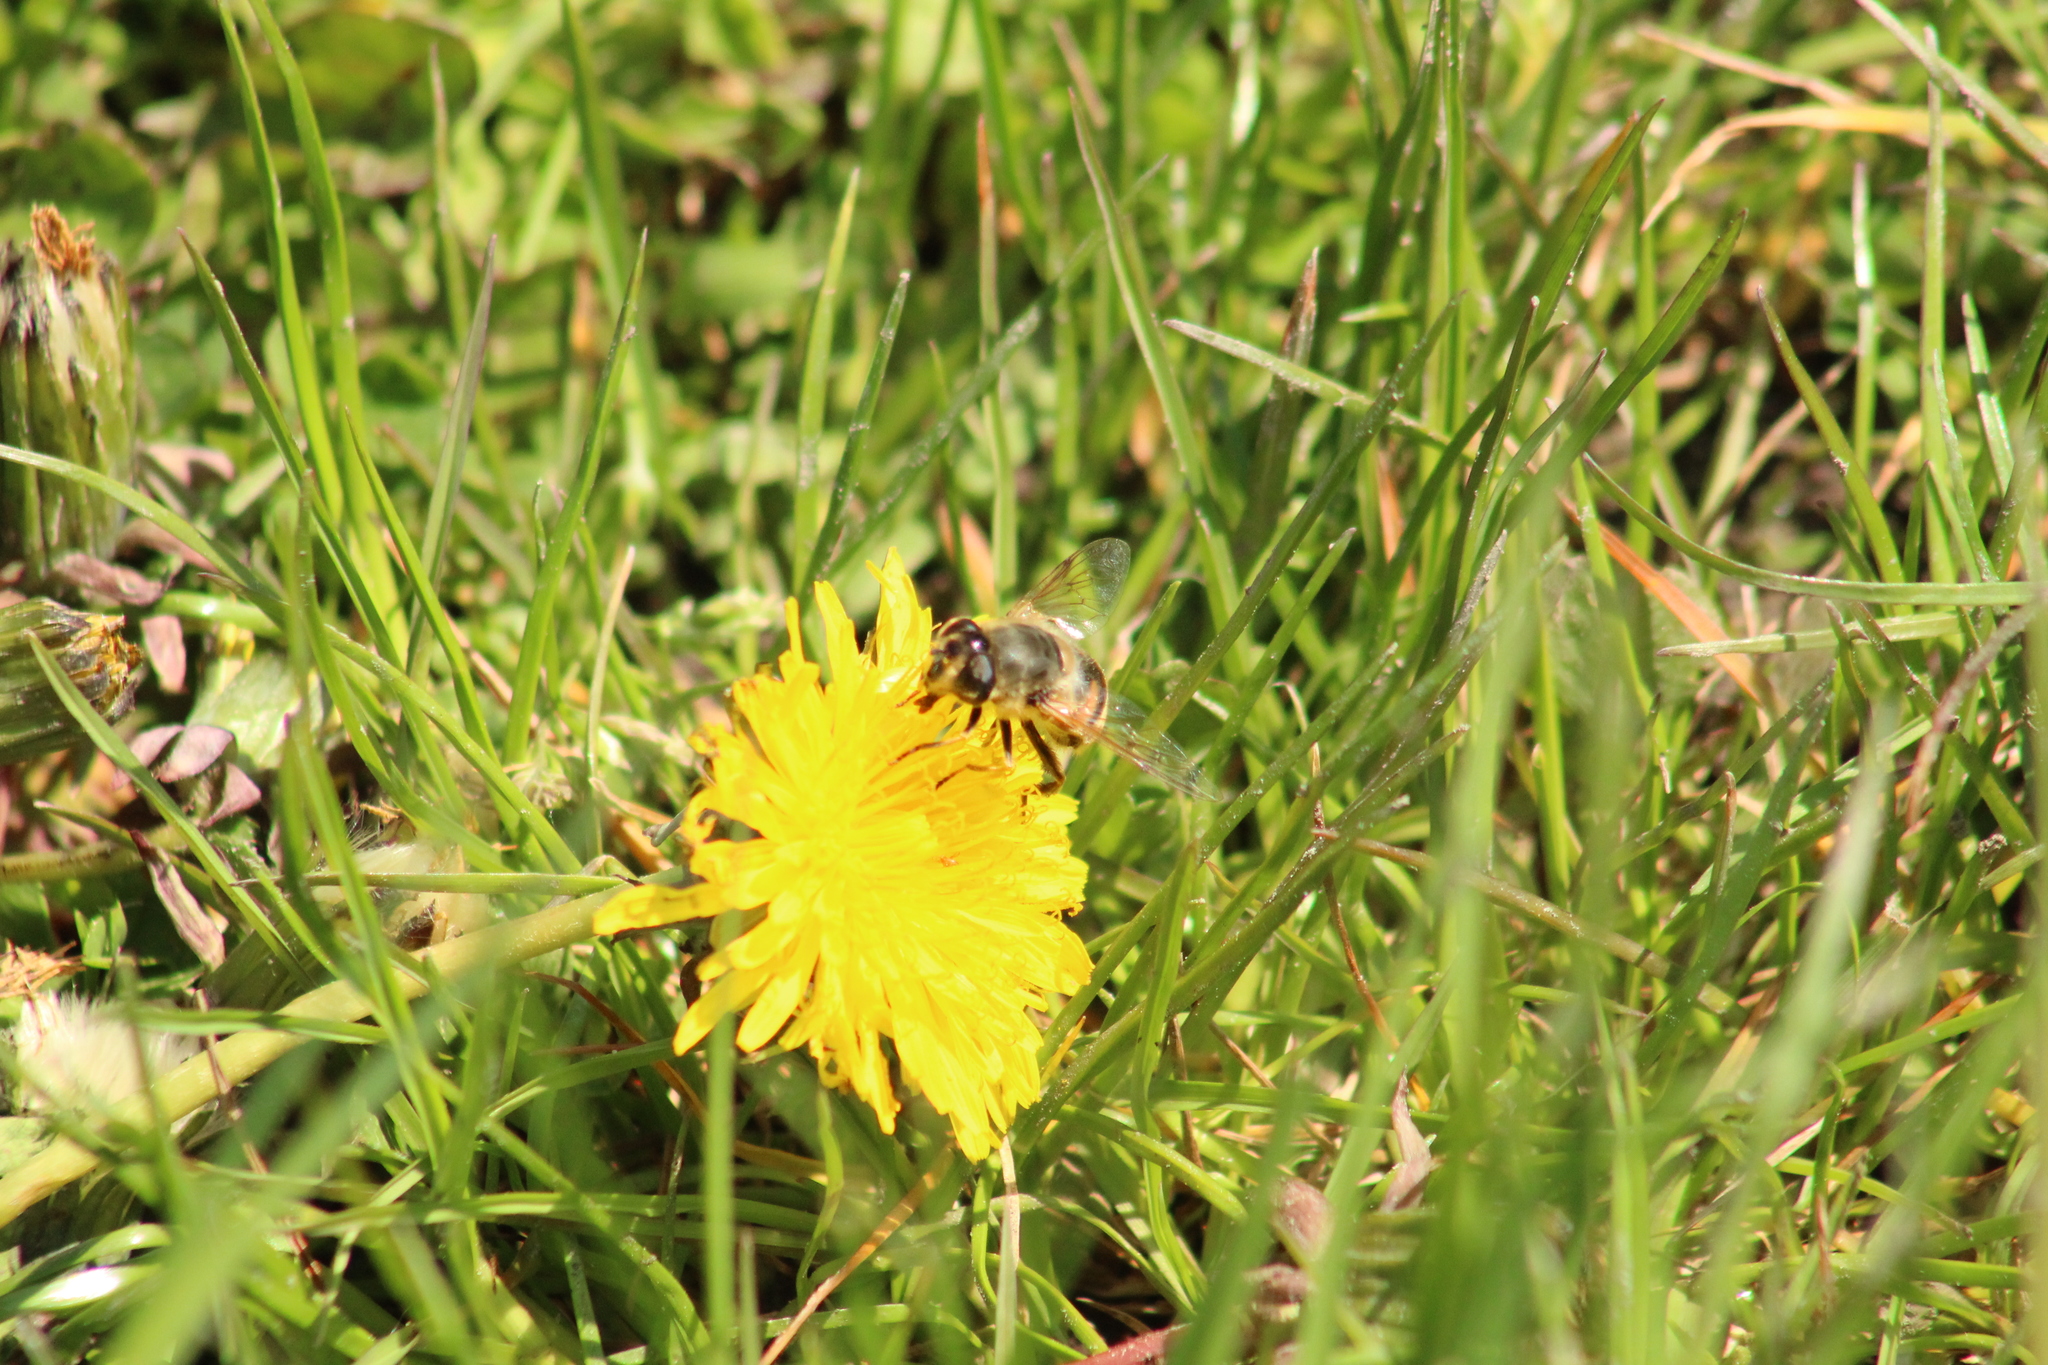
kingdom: Animalia
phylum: Arthropoda
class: Insecta
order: Diptera
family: Syrphidae
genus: Eristalis
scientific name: Eristalis tenax
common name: Drone fly
